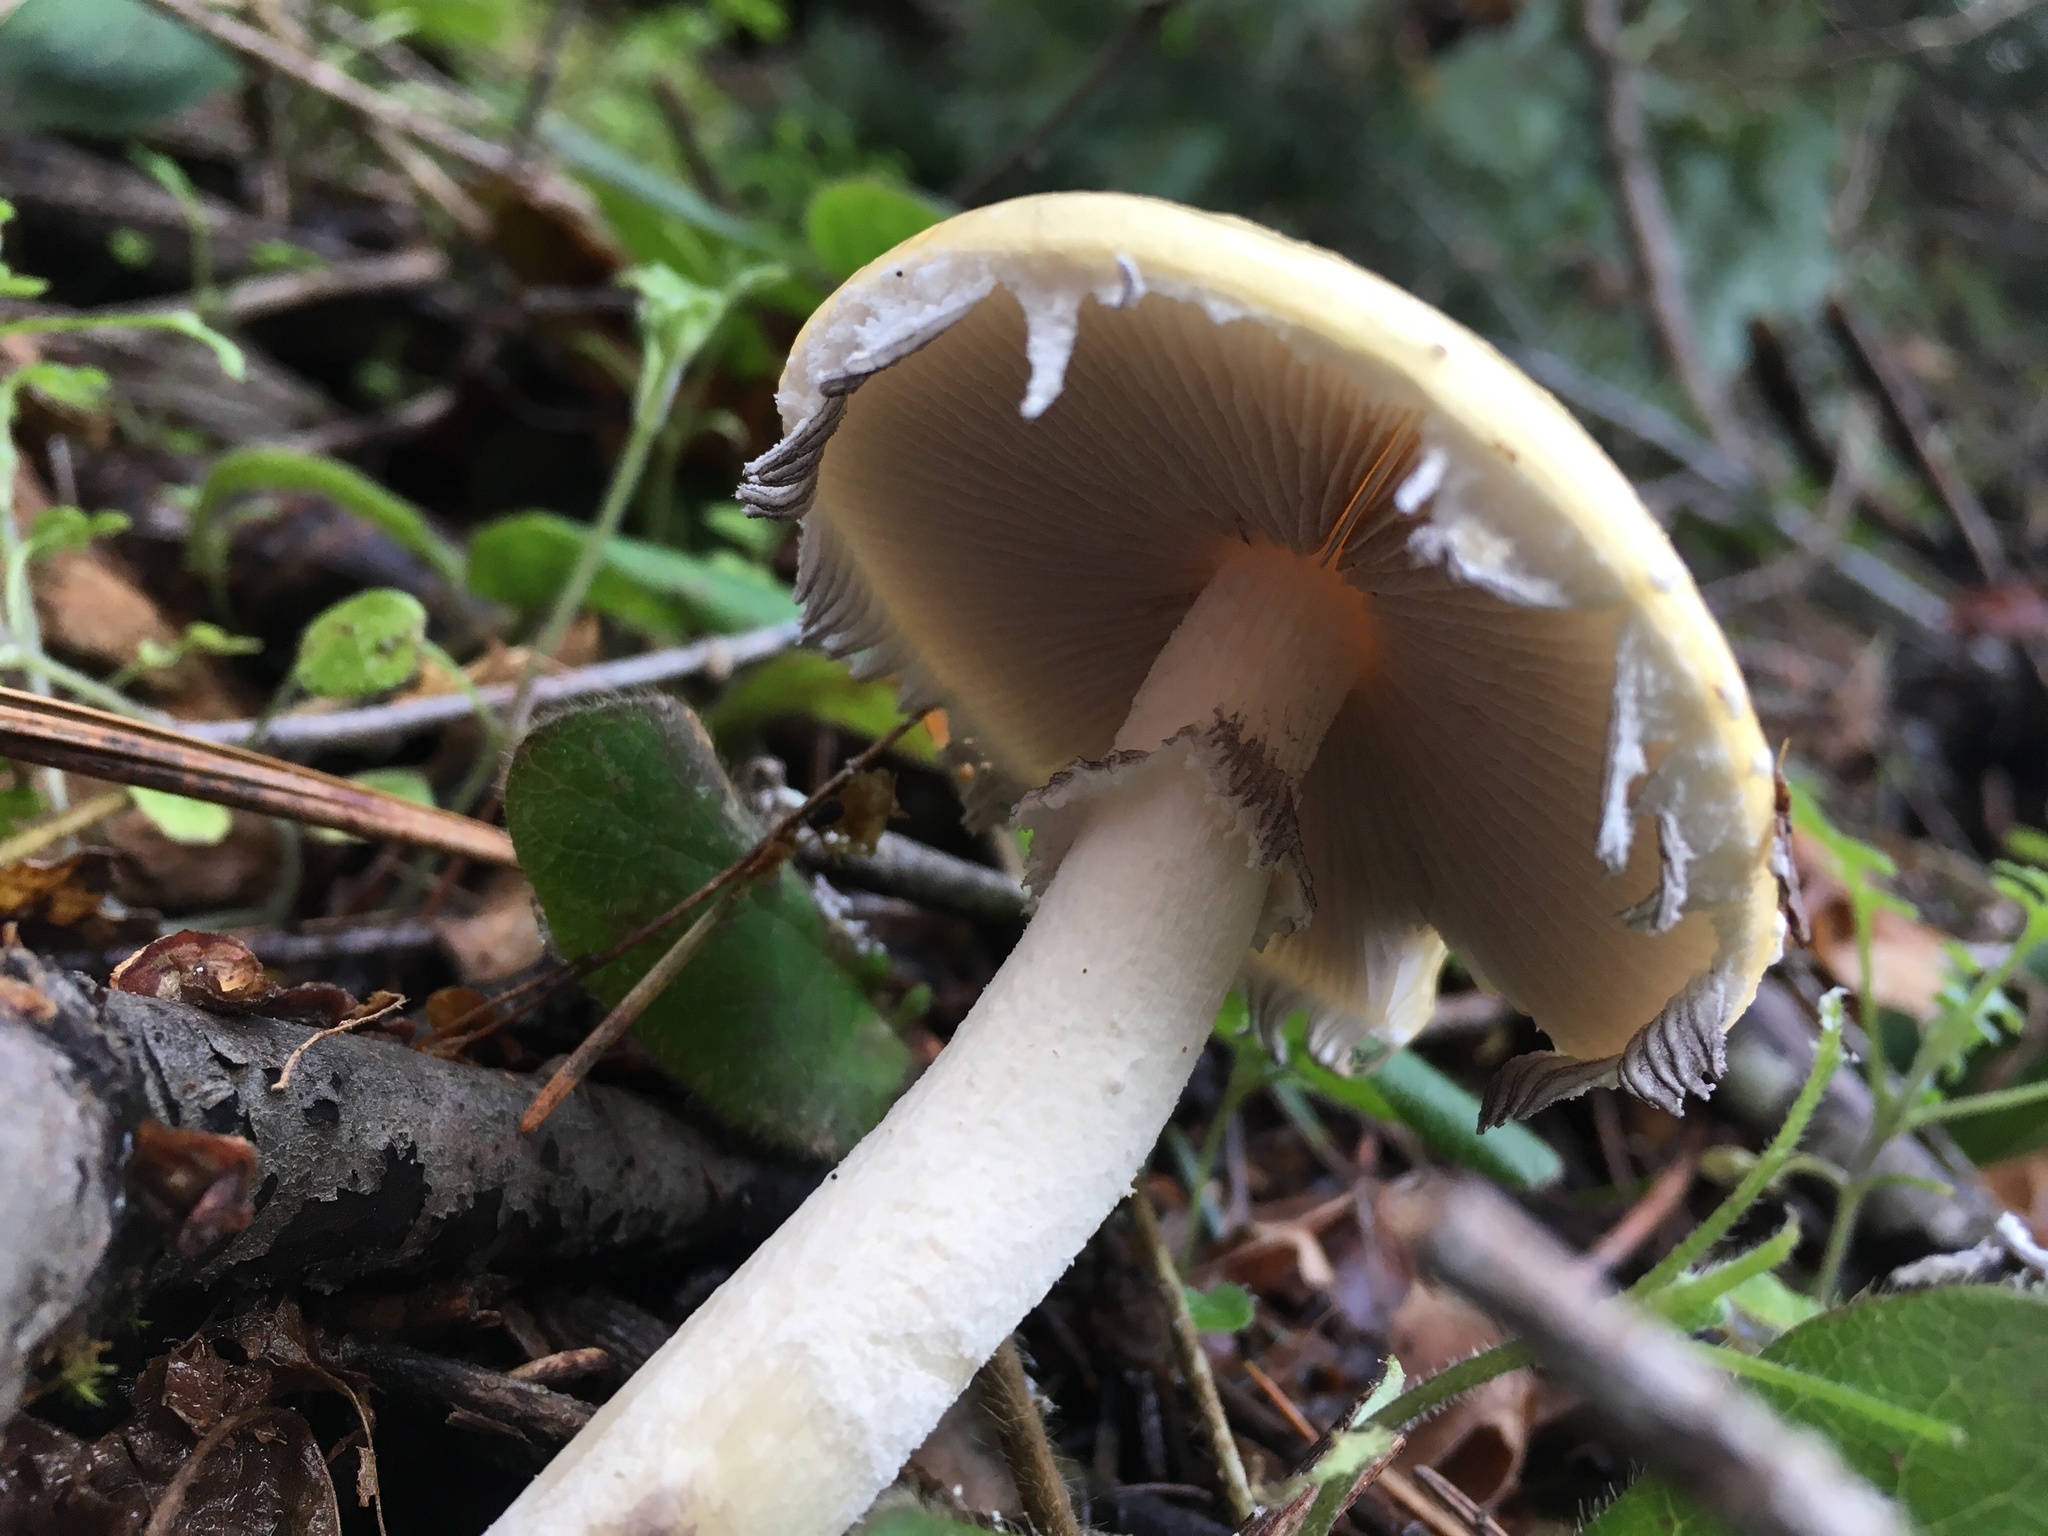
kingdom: Fungi
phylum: Basidiomycota
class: Agaricomycetes
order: Agaricales
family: Strophariaceae
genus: Stropharia
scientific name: Stropharia ambigua
